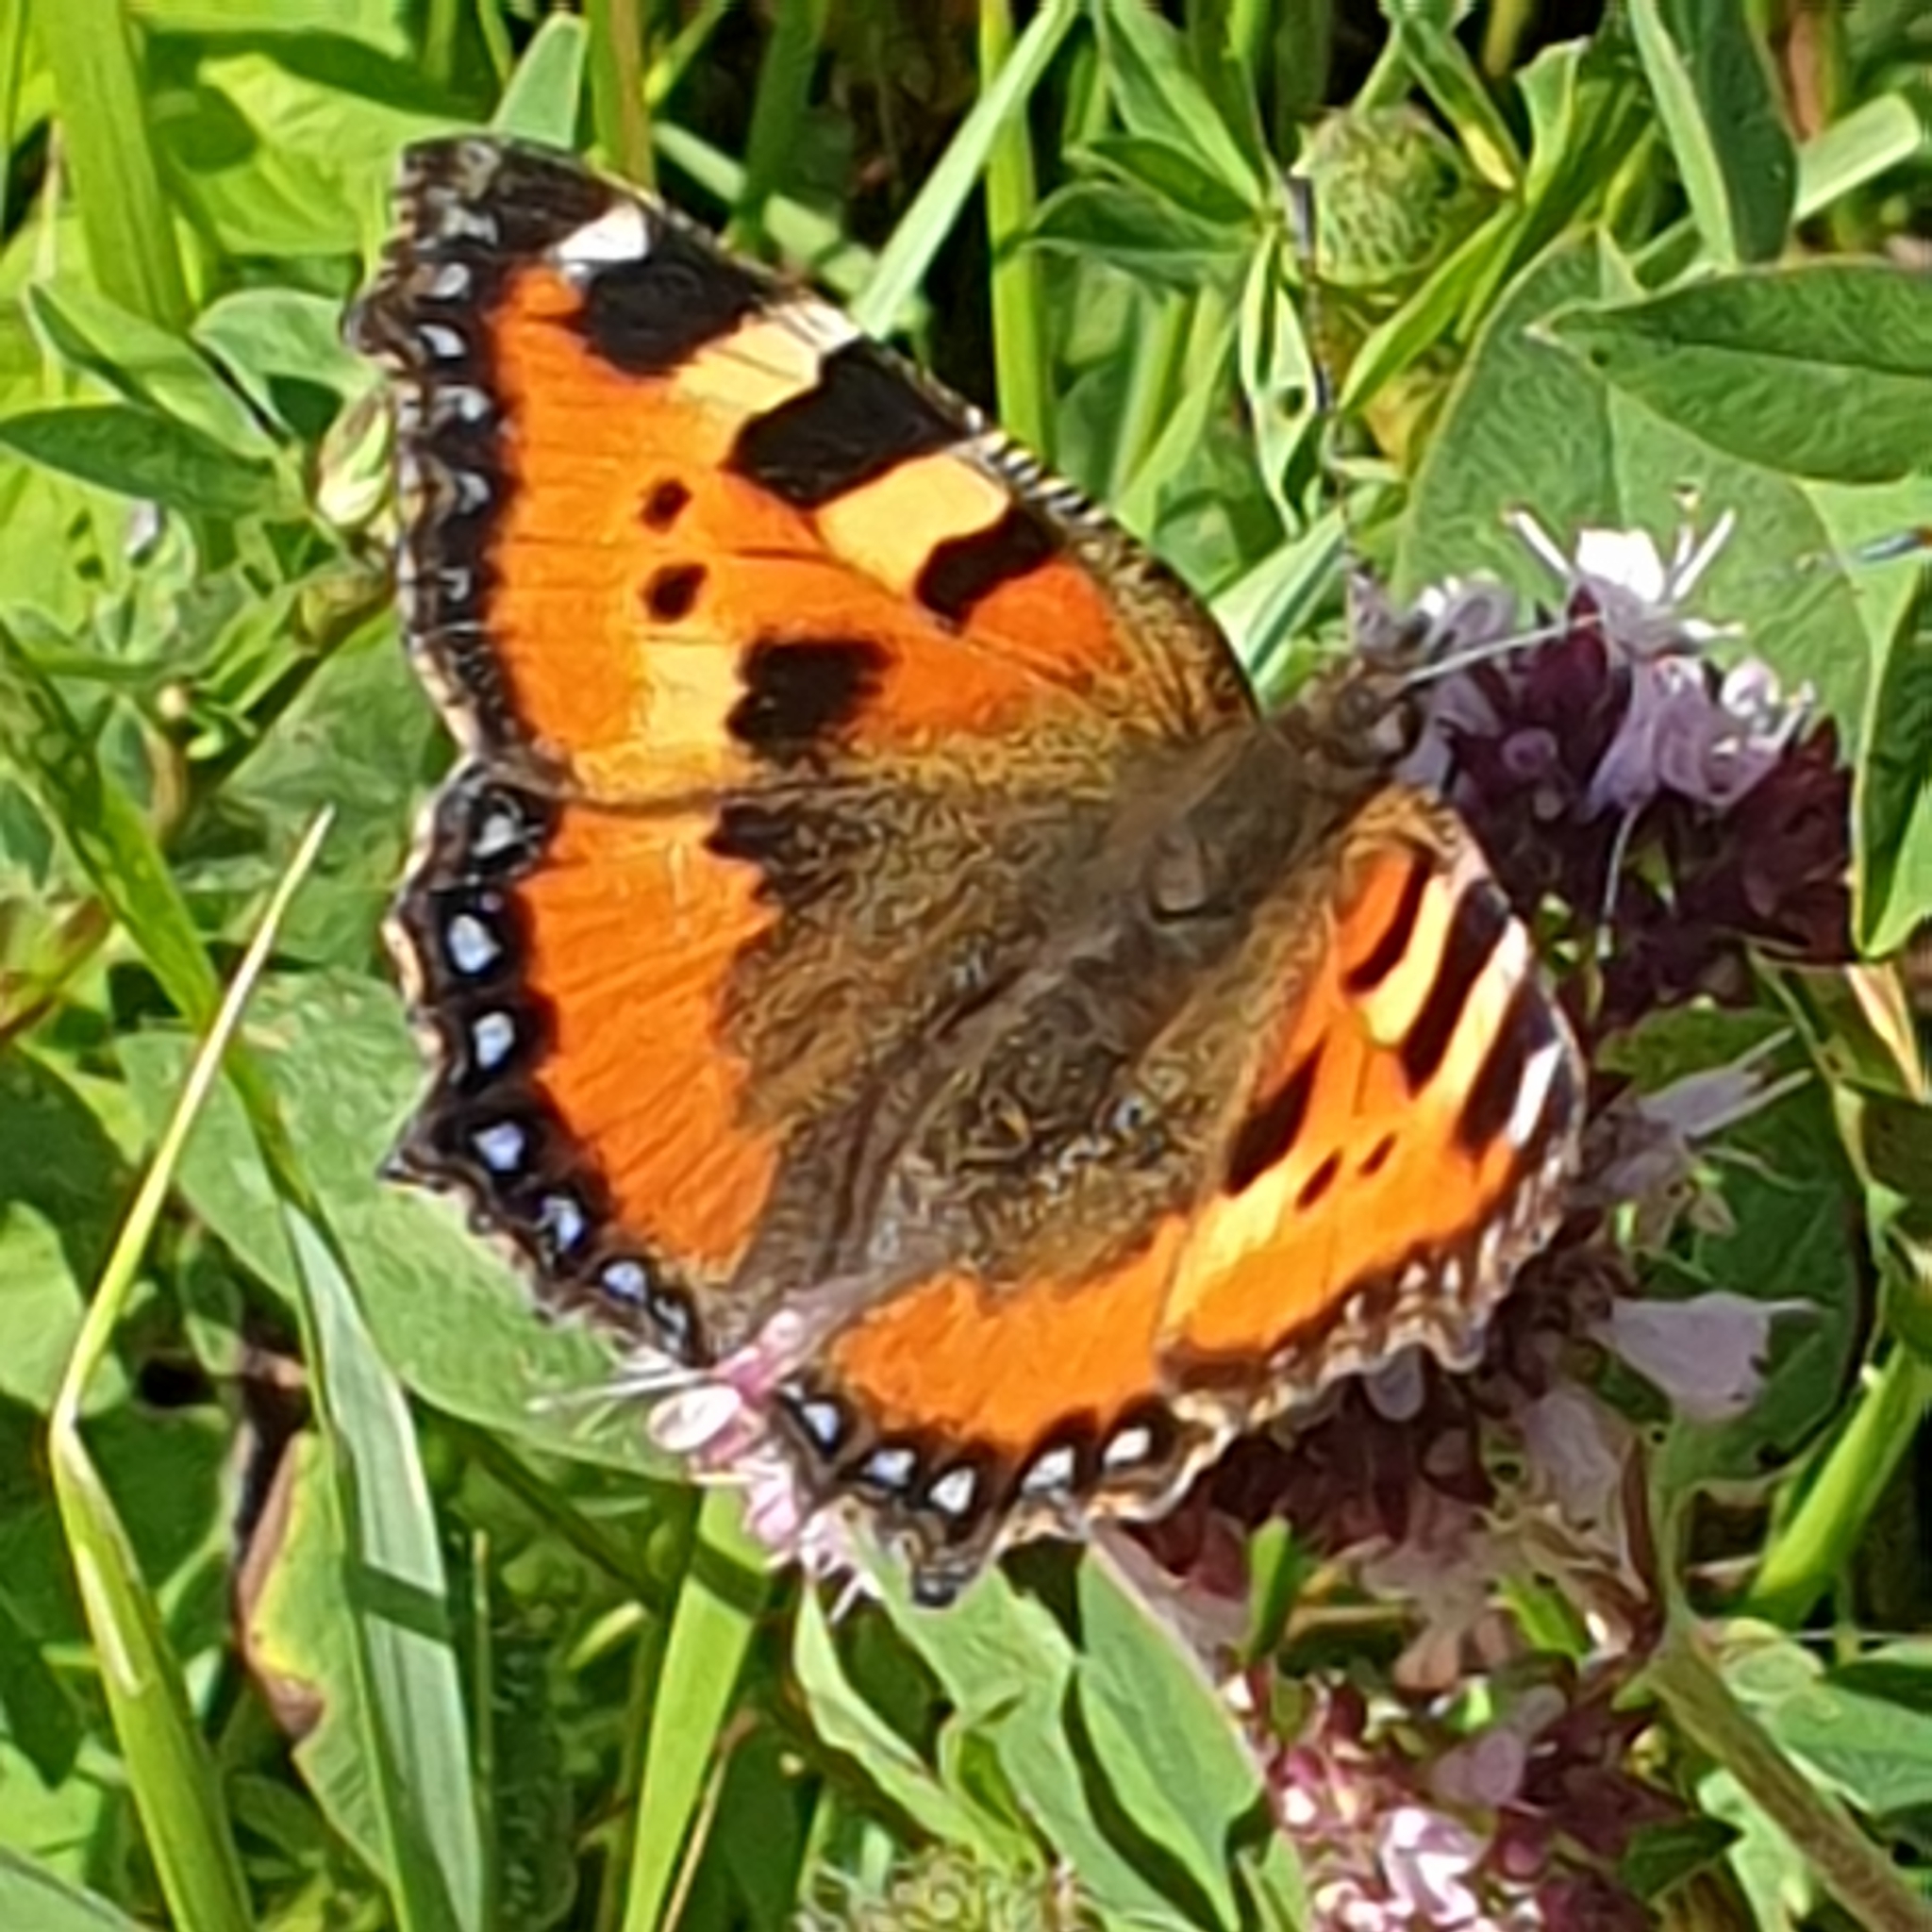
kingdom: Animalia
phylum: Arthropoda
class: Insecta
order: Lepidoptera
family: Nymphalidae
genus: Aglais
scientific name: Aglais urticae
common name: Small tortoiseshell
